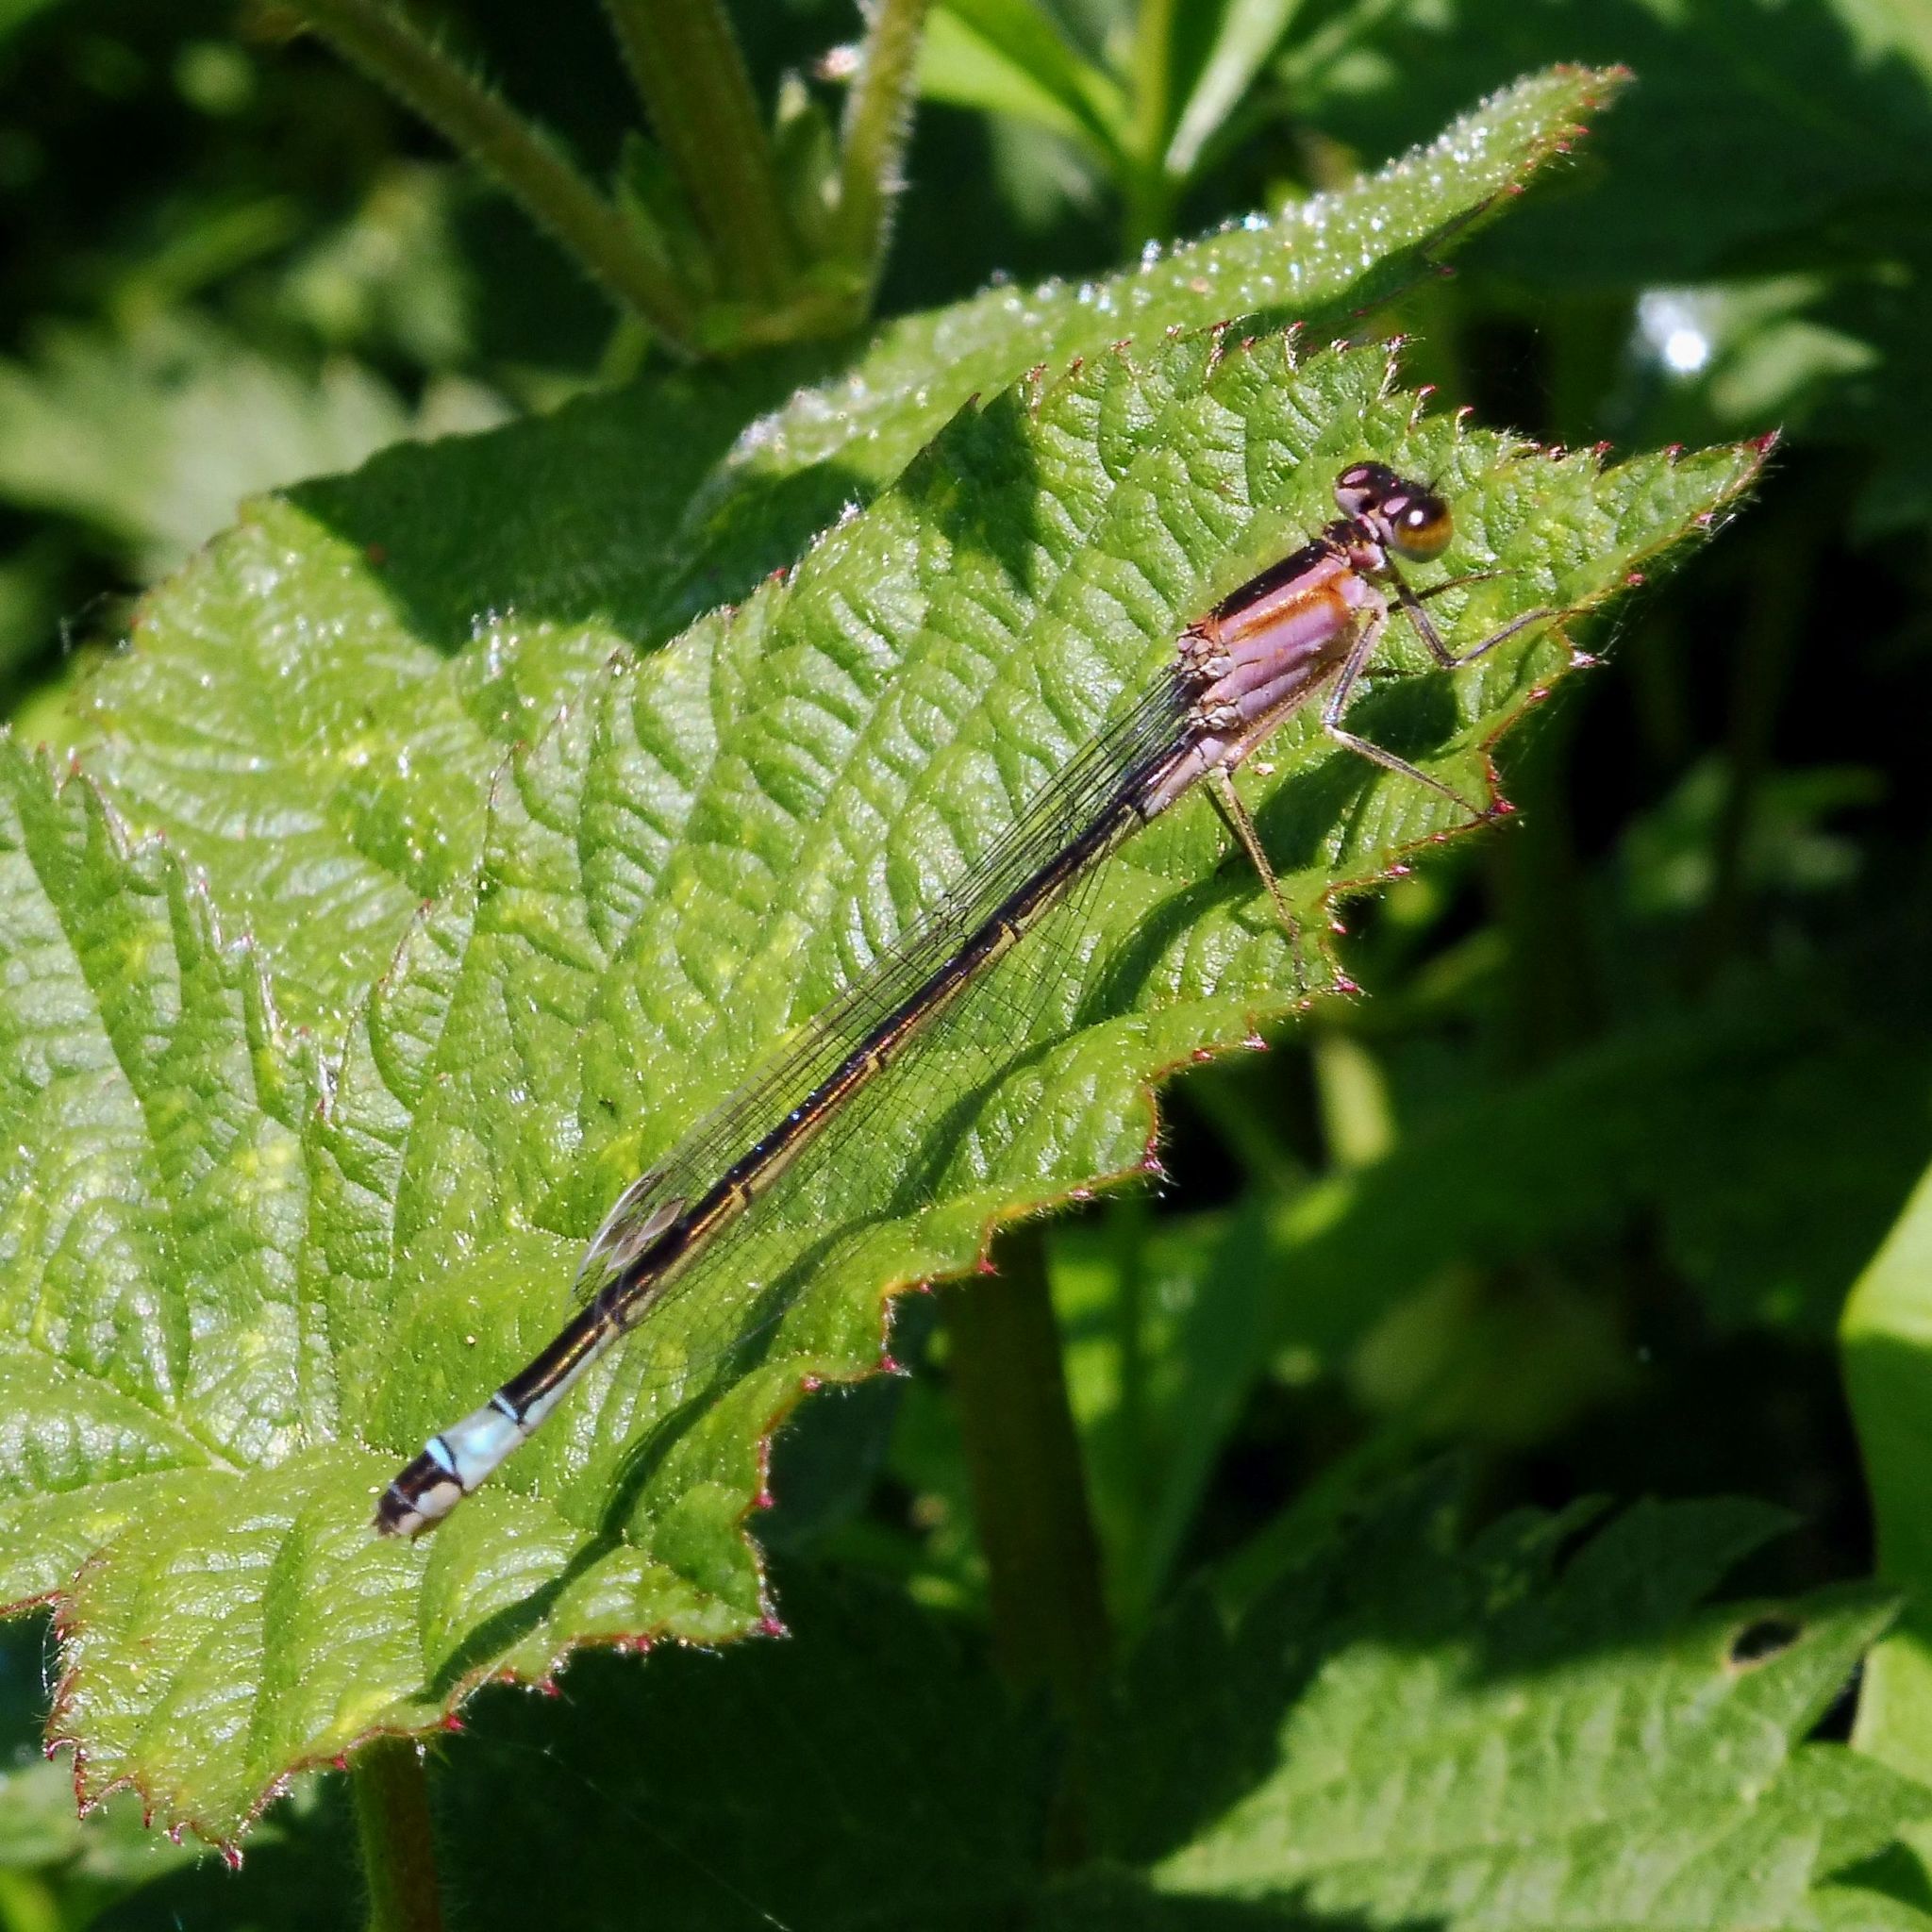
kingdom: Animalia
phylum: Arthropoda
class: Insecta
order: Odonata
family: Coenagrionidae
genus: Ischnura
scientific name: Ischnura elegans
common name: Blue-tailed damselfly
